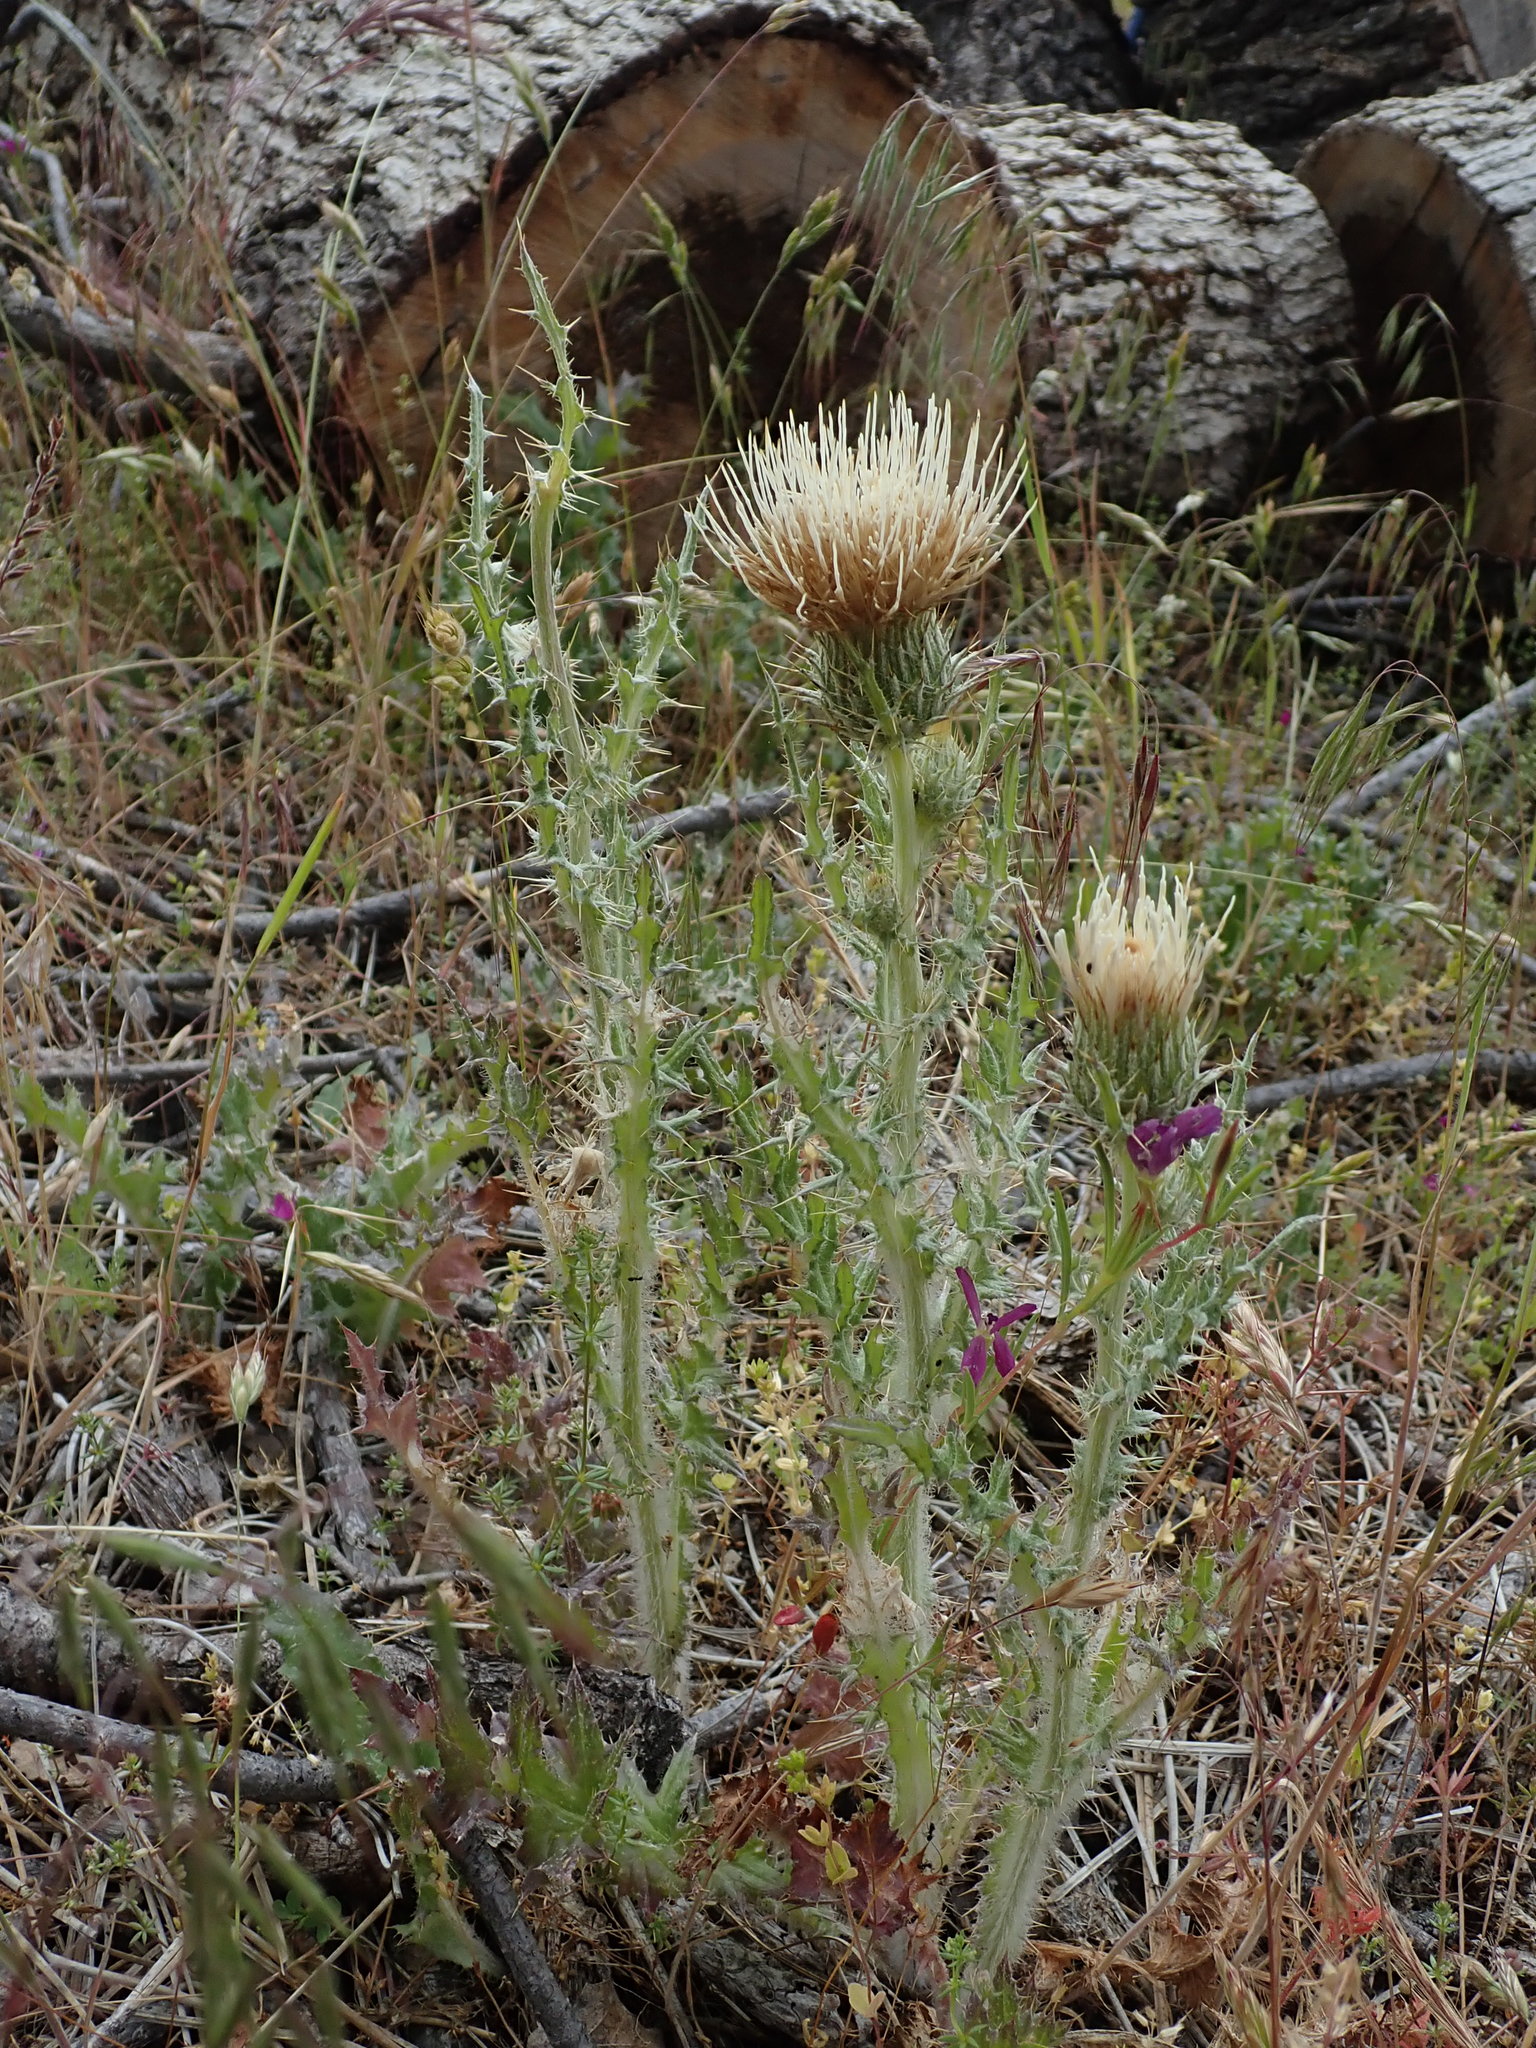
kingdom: Plantae
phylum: Tracheophyta
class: Magnoliopsida
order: Asterales
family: Asteraceae
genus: Cirsium
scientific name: Cirsium cymosum
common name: Peregrine thistle
